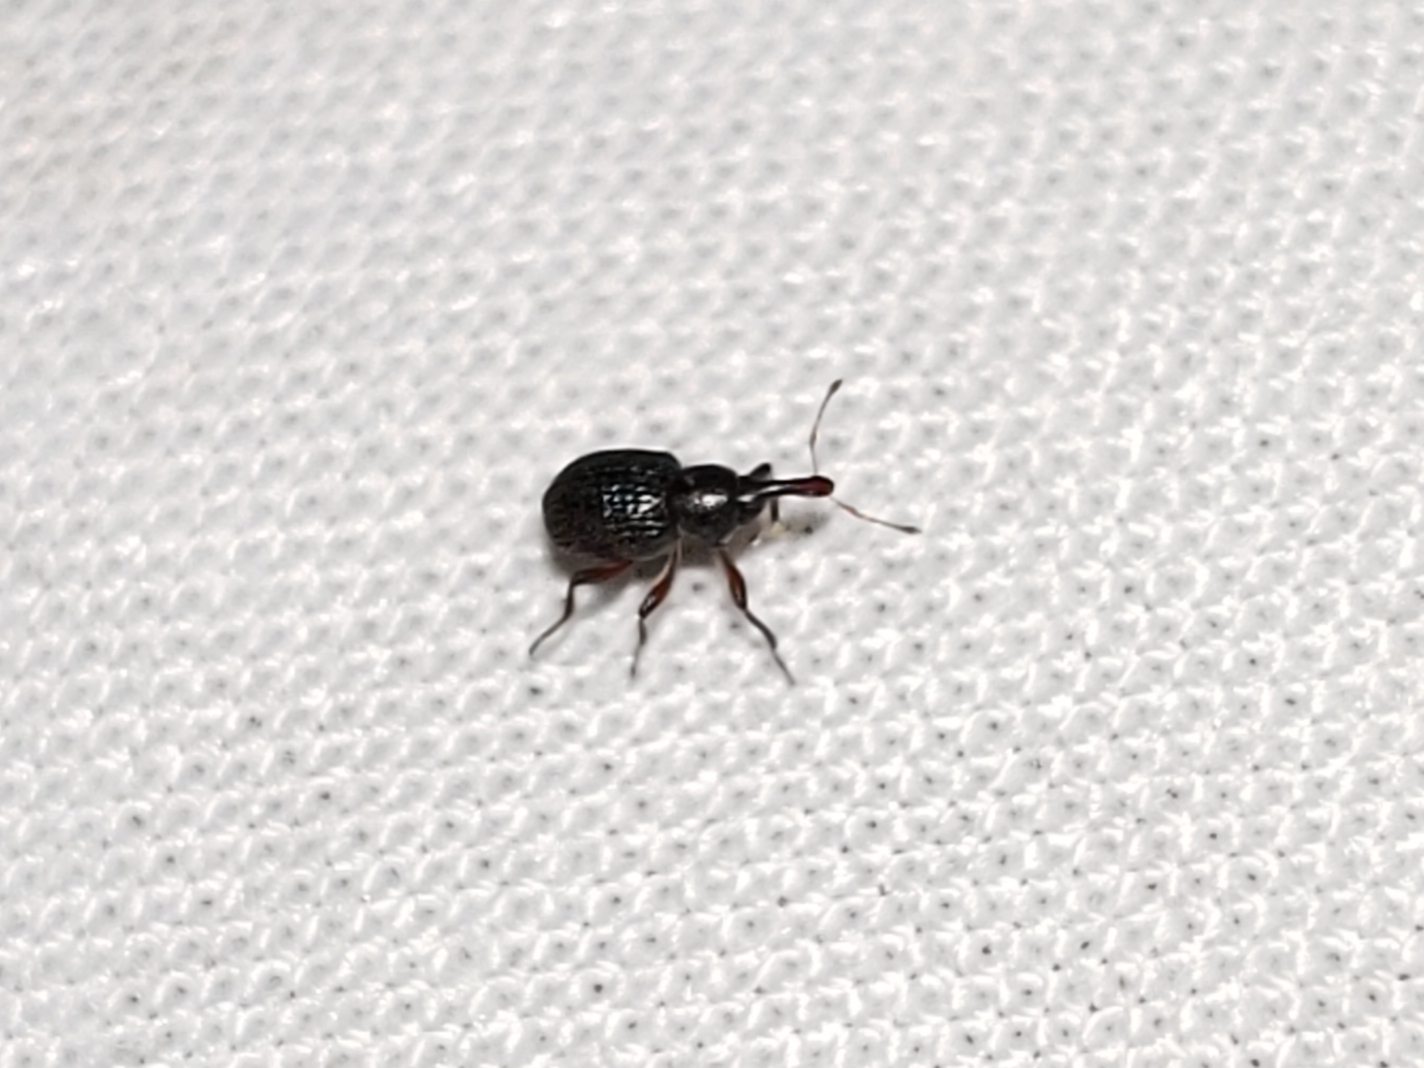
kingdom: Animalia
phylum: Arthropoda
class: Insecta
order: Coleoptera
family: Brachyceridae
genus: Cyrtobagous
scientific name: Cyrtobagous salviniae
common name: Salvinia weevil
